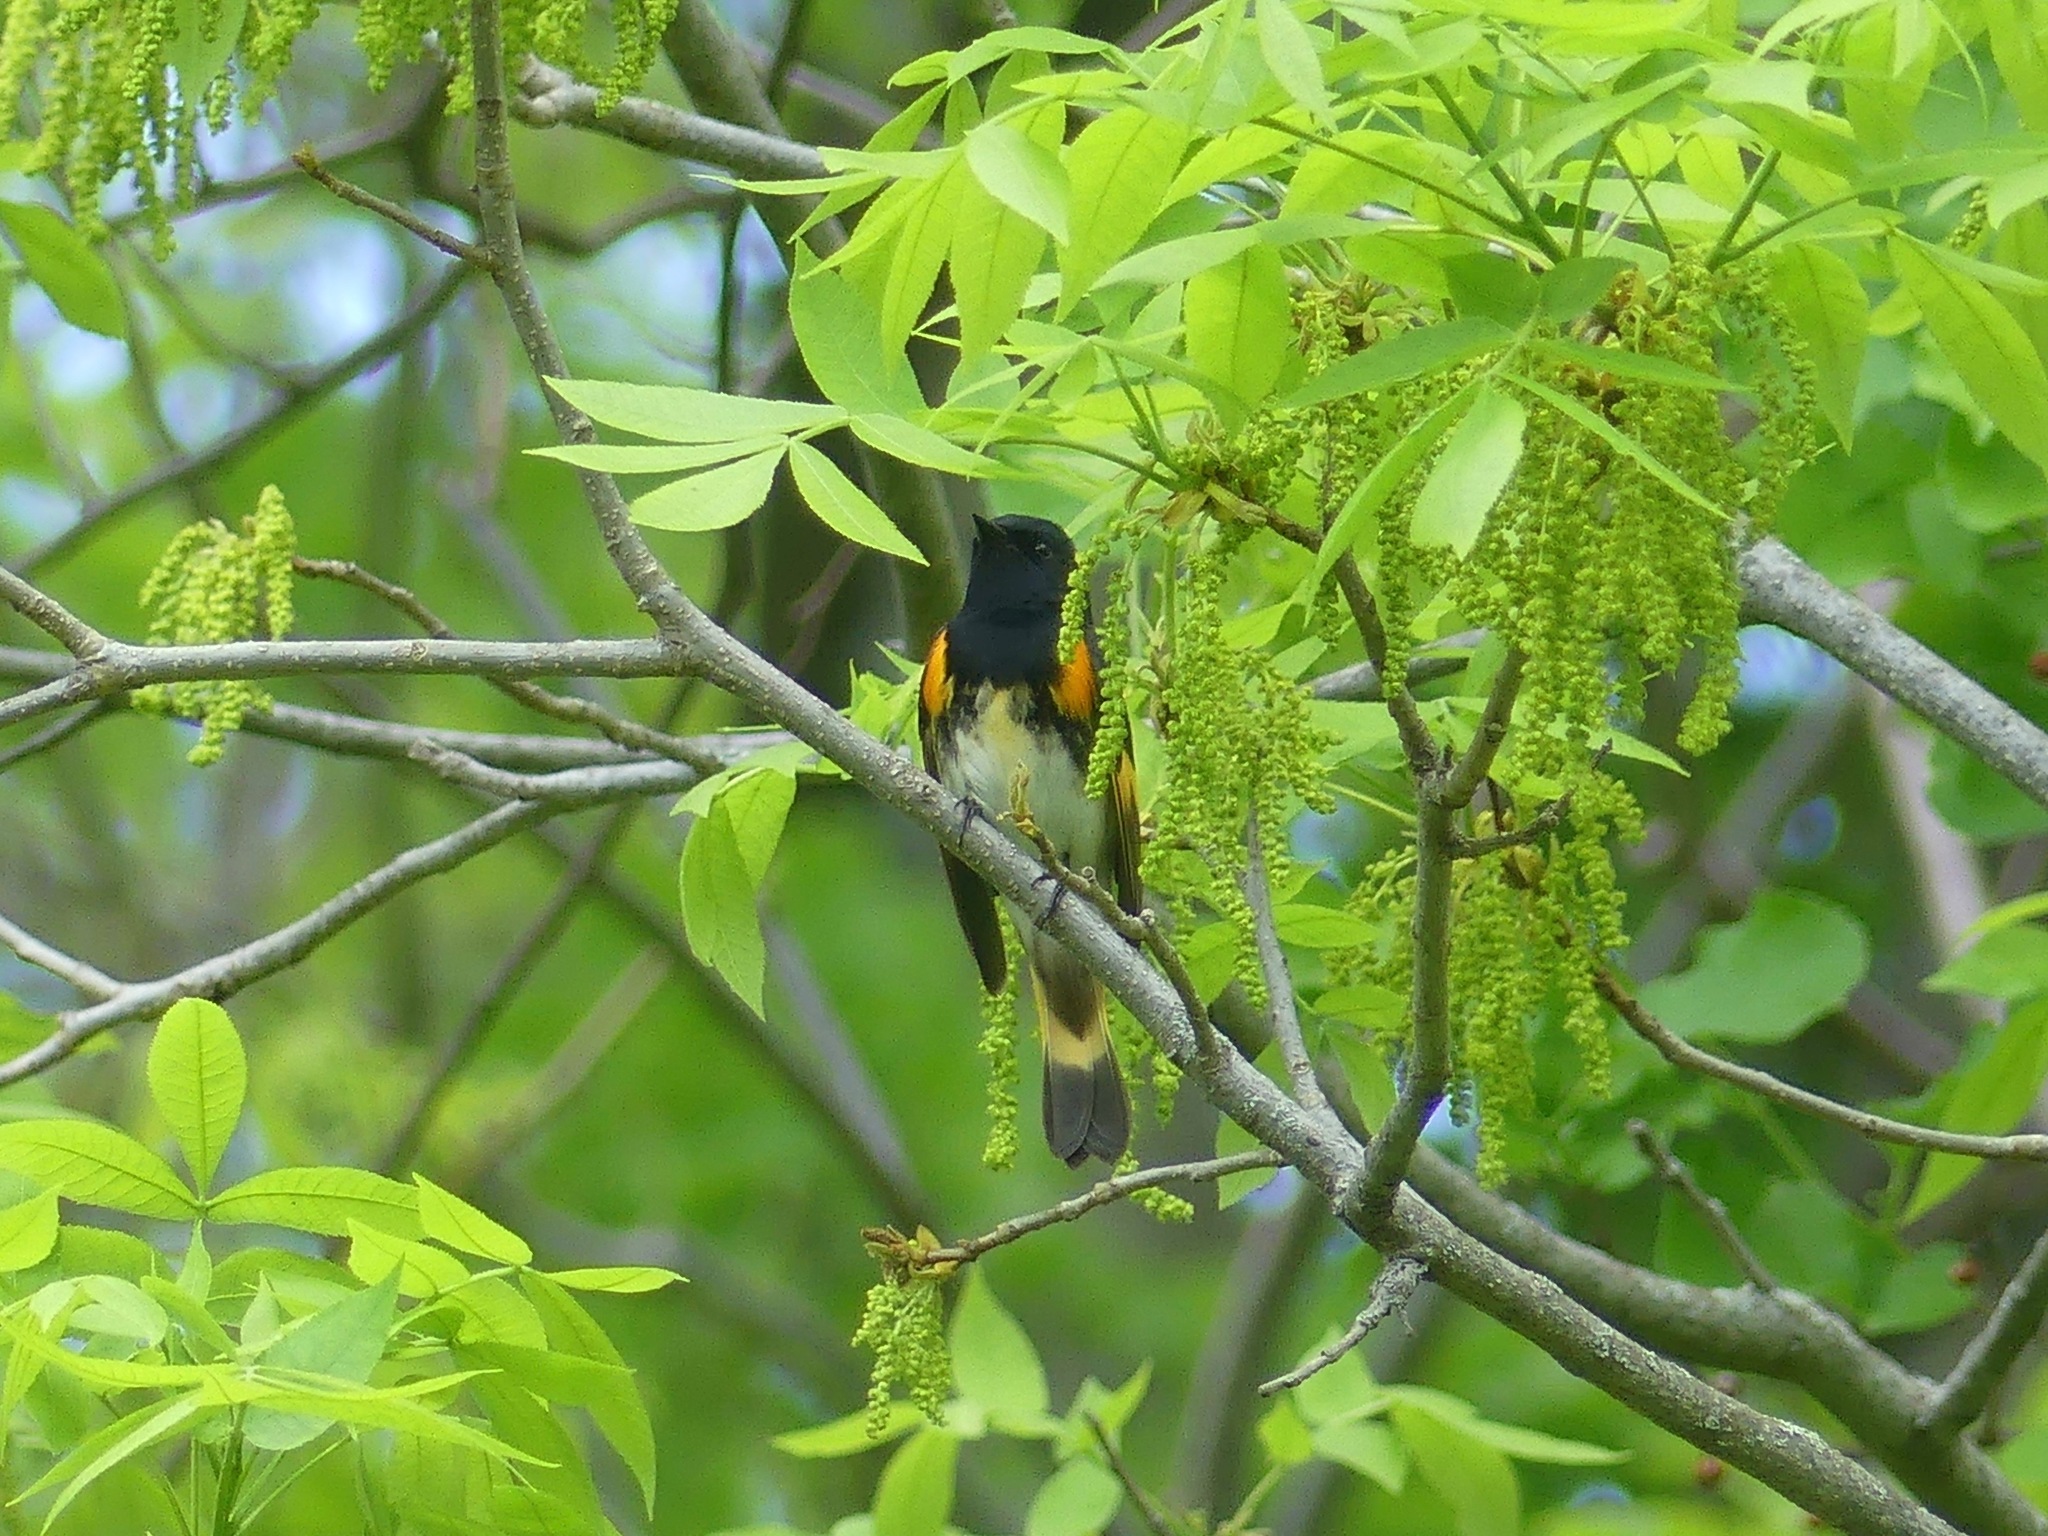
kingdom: Animalia
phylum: Chordata
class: Aves
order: Passeriformes
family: Parulidae
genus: Setophaga
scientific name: Setophaga ruticilla
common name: American redstart
